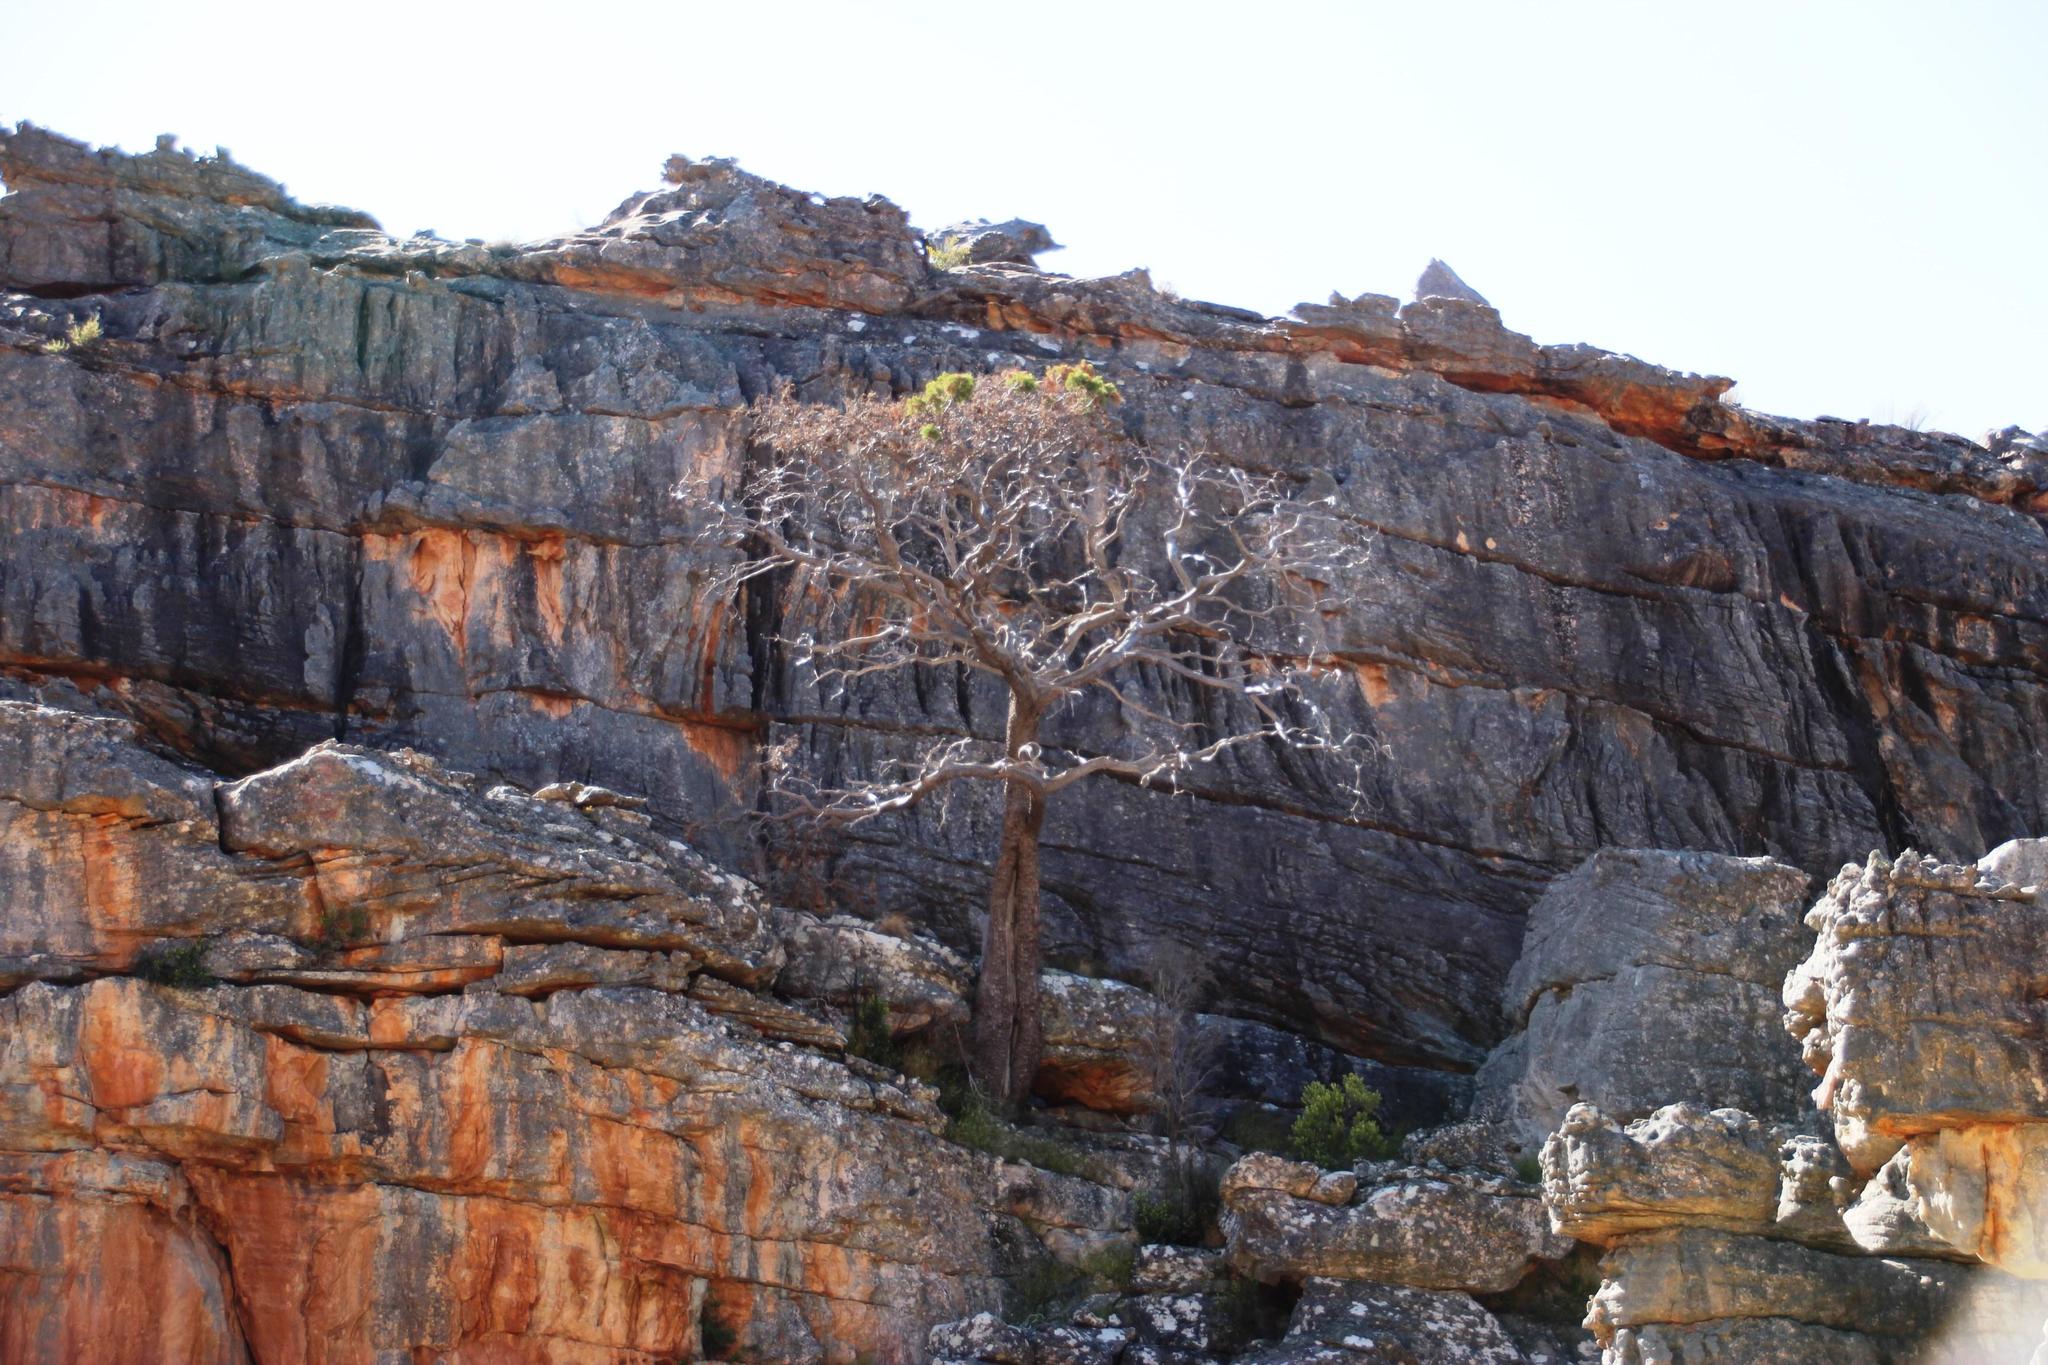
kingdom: Plantae
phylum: Tracheophyta
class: Pinopsida
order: Pinales
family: Cupressaceae
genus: Widdringtonia
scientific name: Widdringtonia nodiflora
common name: Cape cypress
